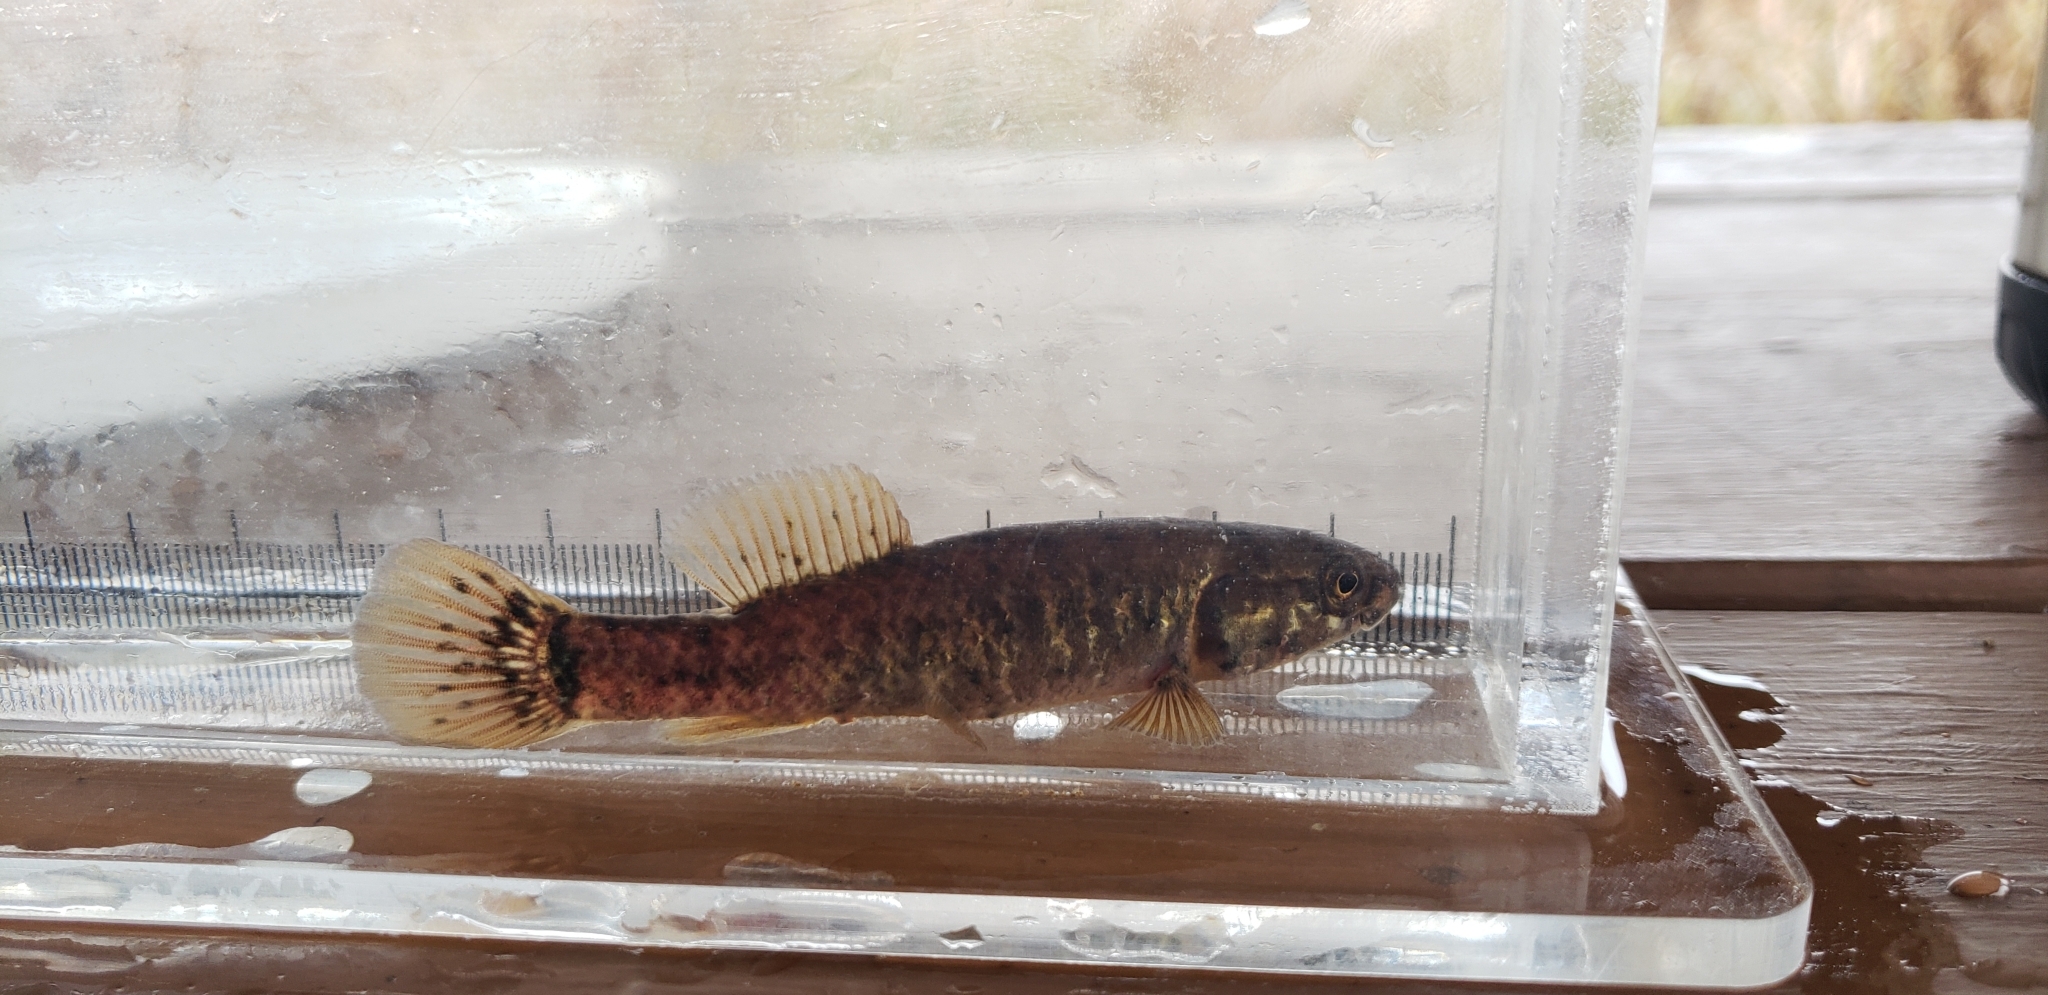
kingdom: Animalia
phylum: Chordata
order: Esociformes
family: Umbridae
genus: Umbra
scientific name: Umbra limi
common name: Central mudminnow
